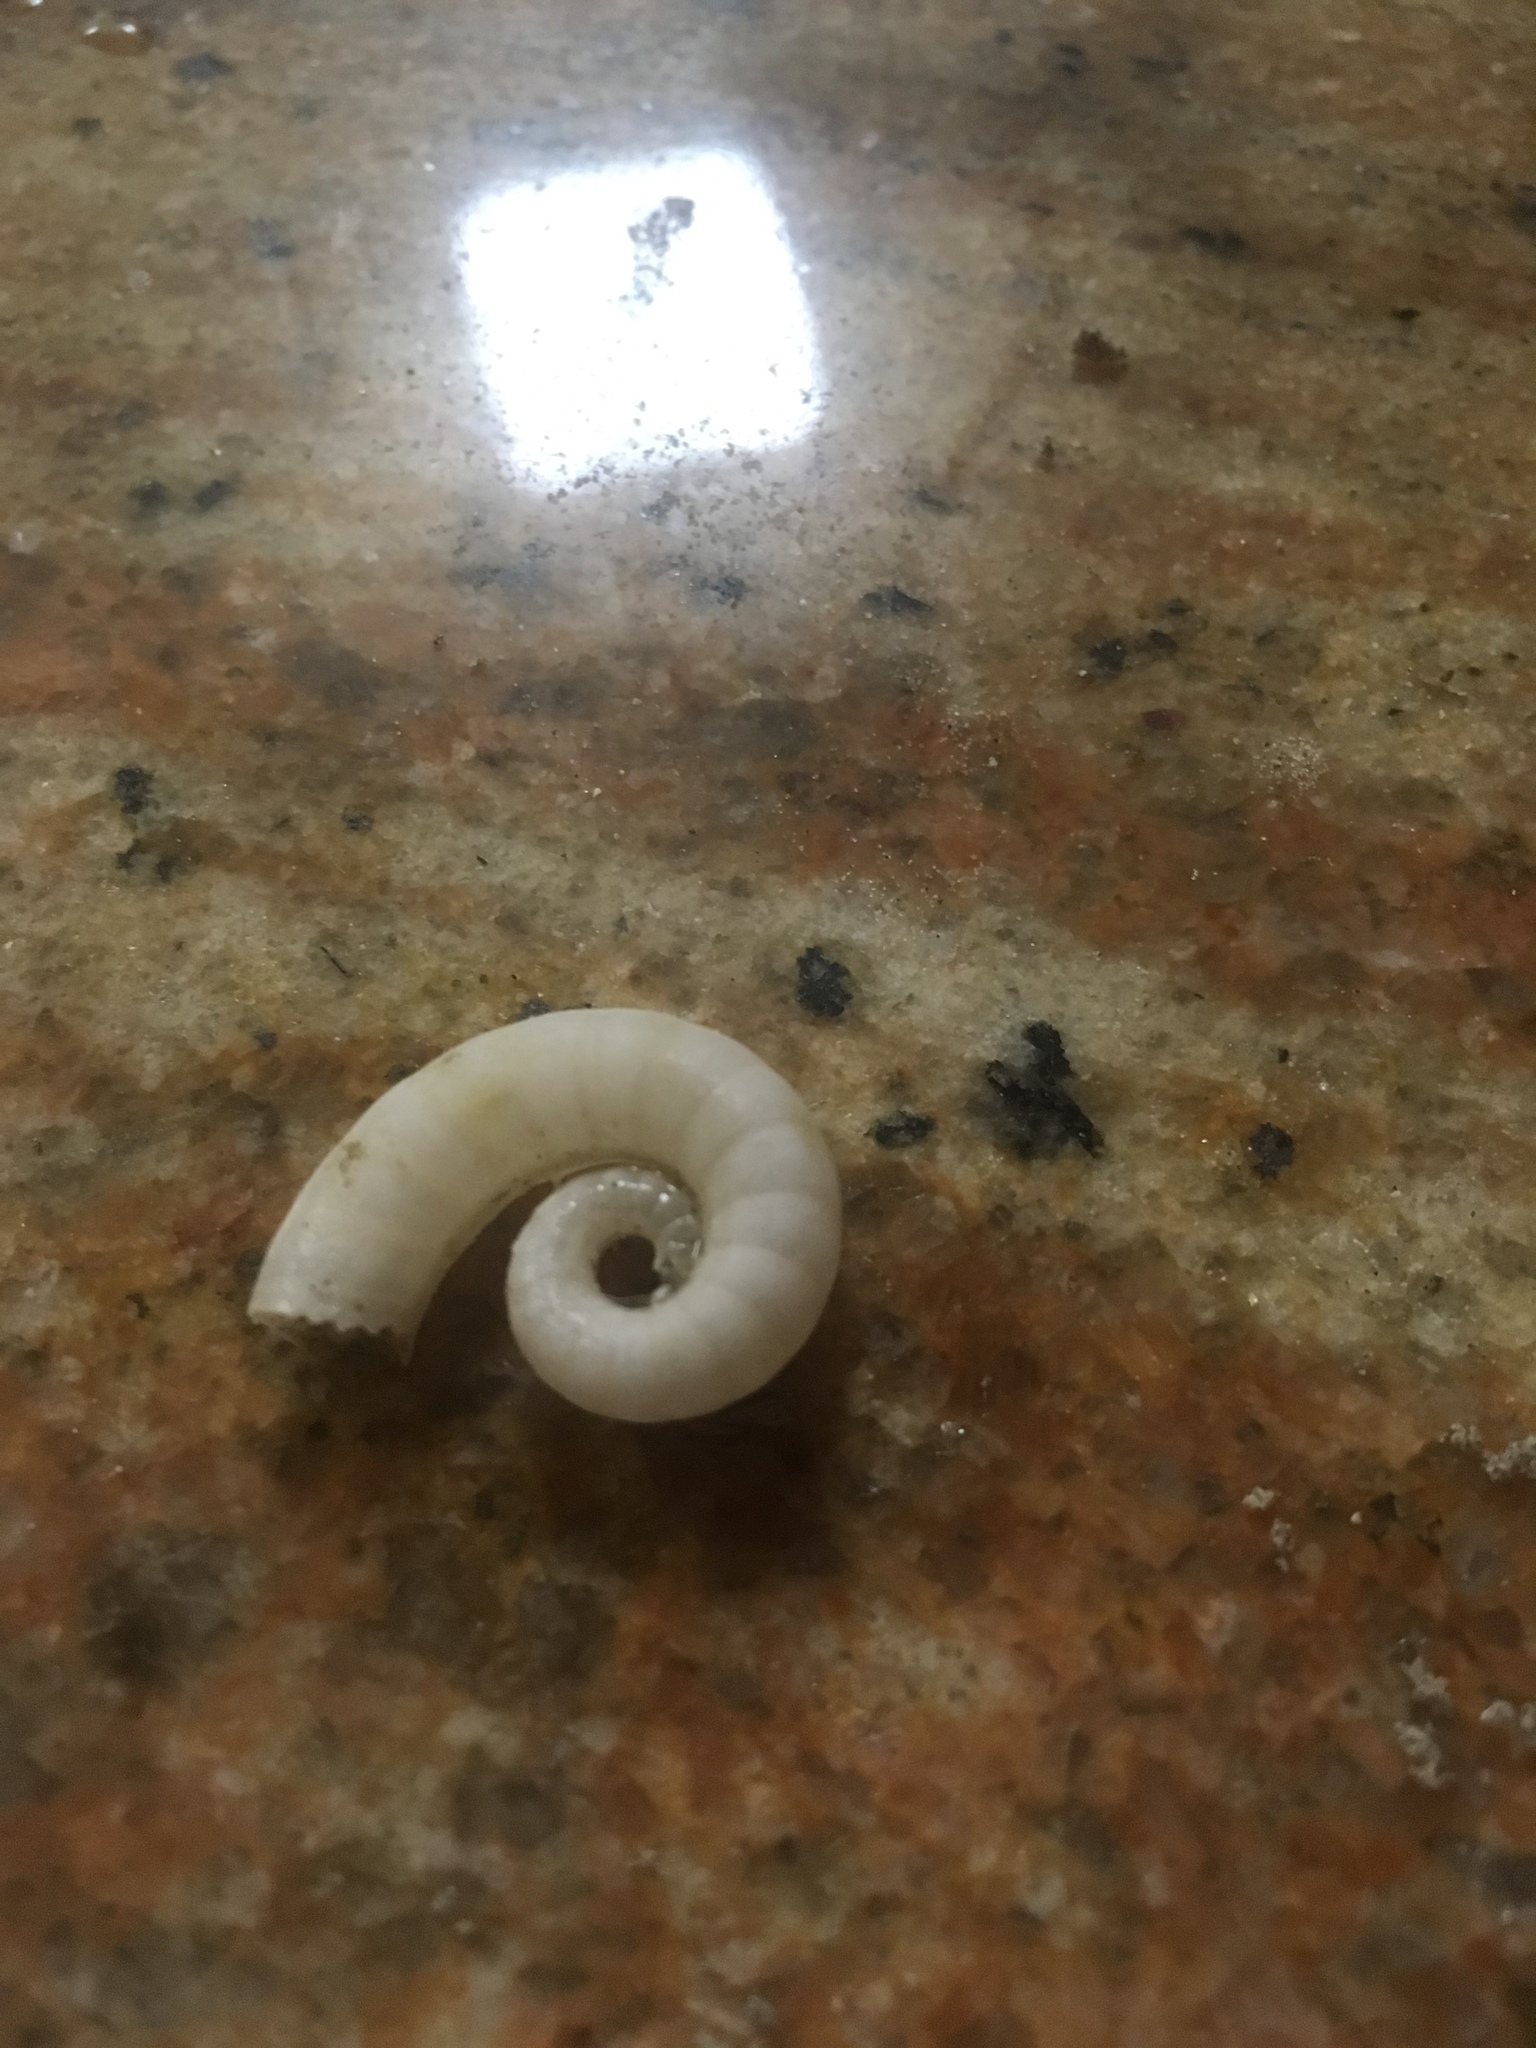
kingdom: Animalia
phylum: Mollusca
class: Cephalopoda
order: Spirulida
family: Spirulidae
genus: Spirula
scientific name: Spirula spirula
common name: Ram's horn squid
